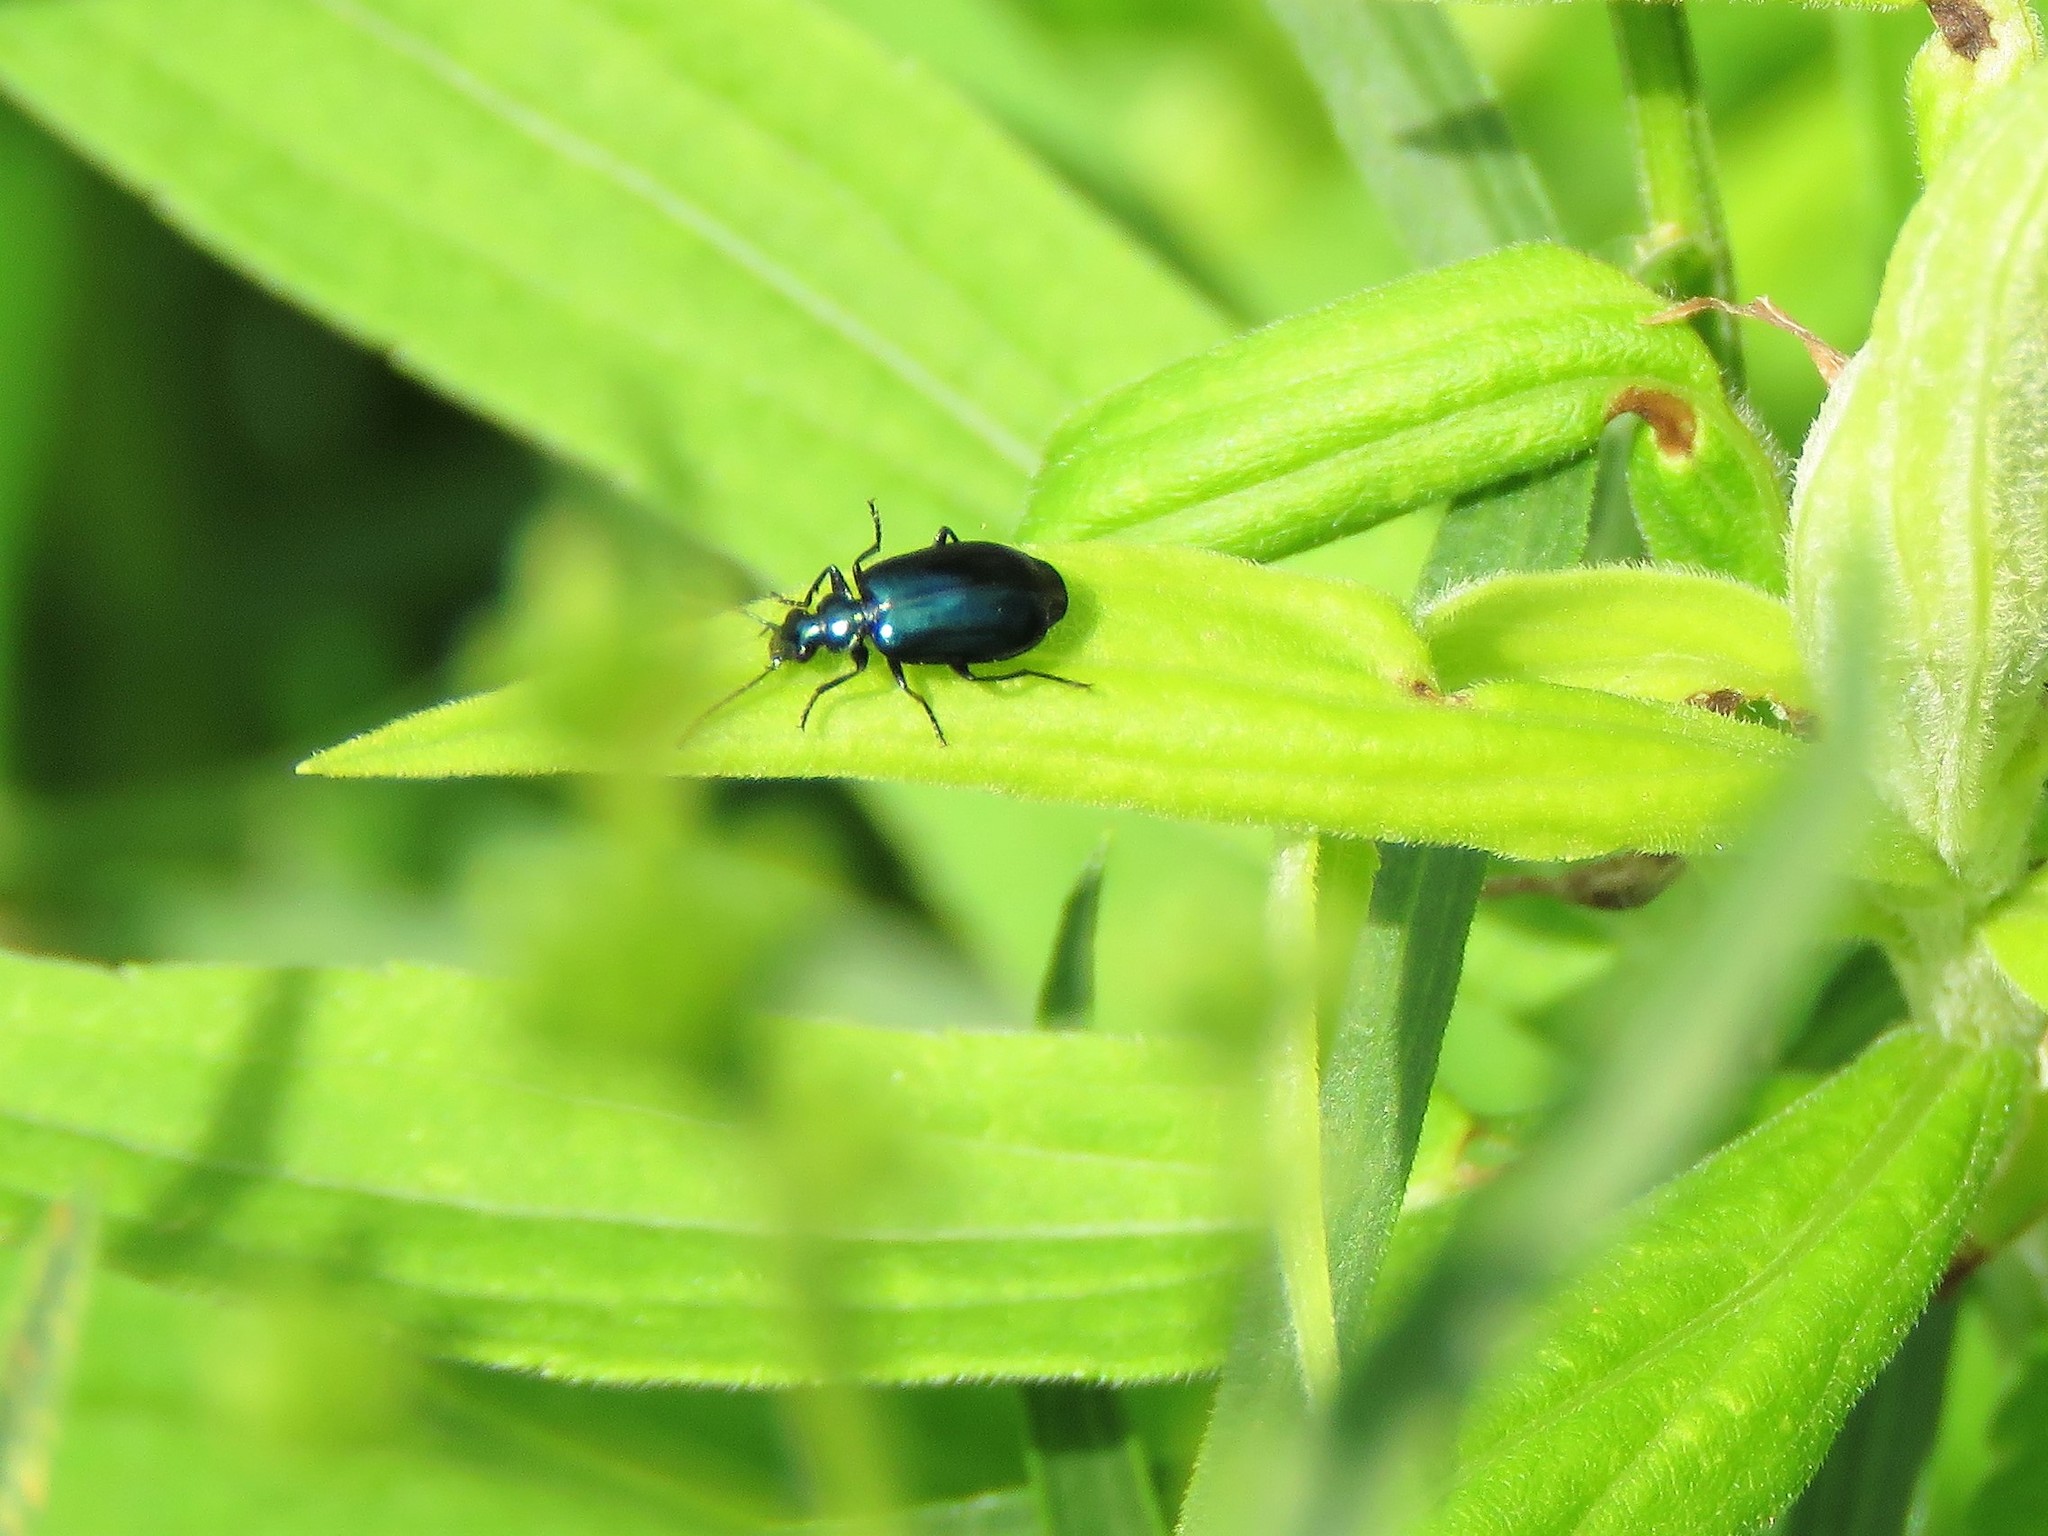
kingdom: Animalia
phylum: Arthropoda
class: Insecta
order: Coleoptera
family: Carabidae
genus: Lebia
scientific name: Lebia viridis
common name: Flower lebia beetle
